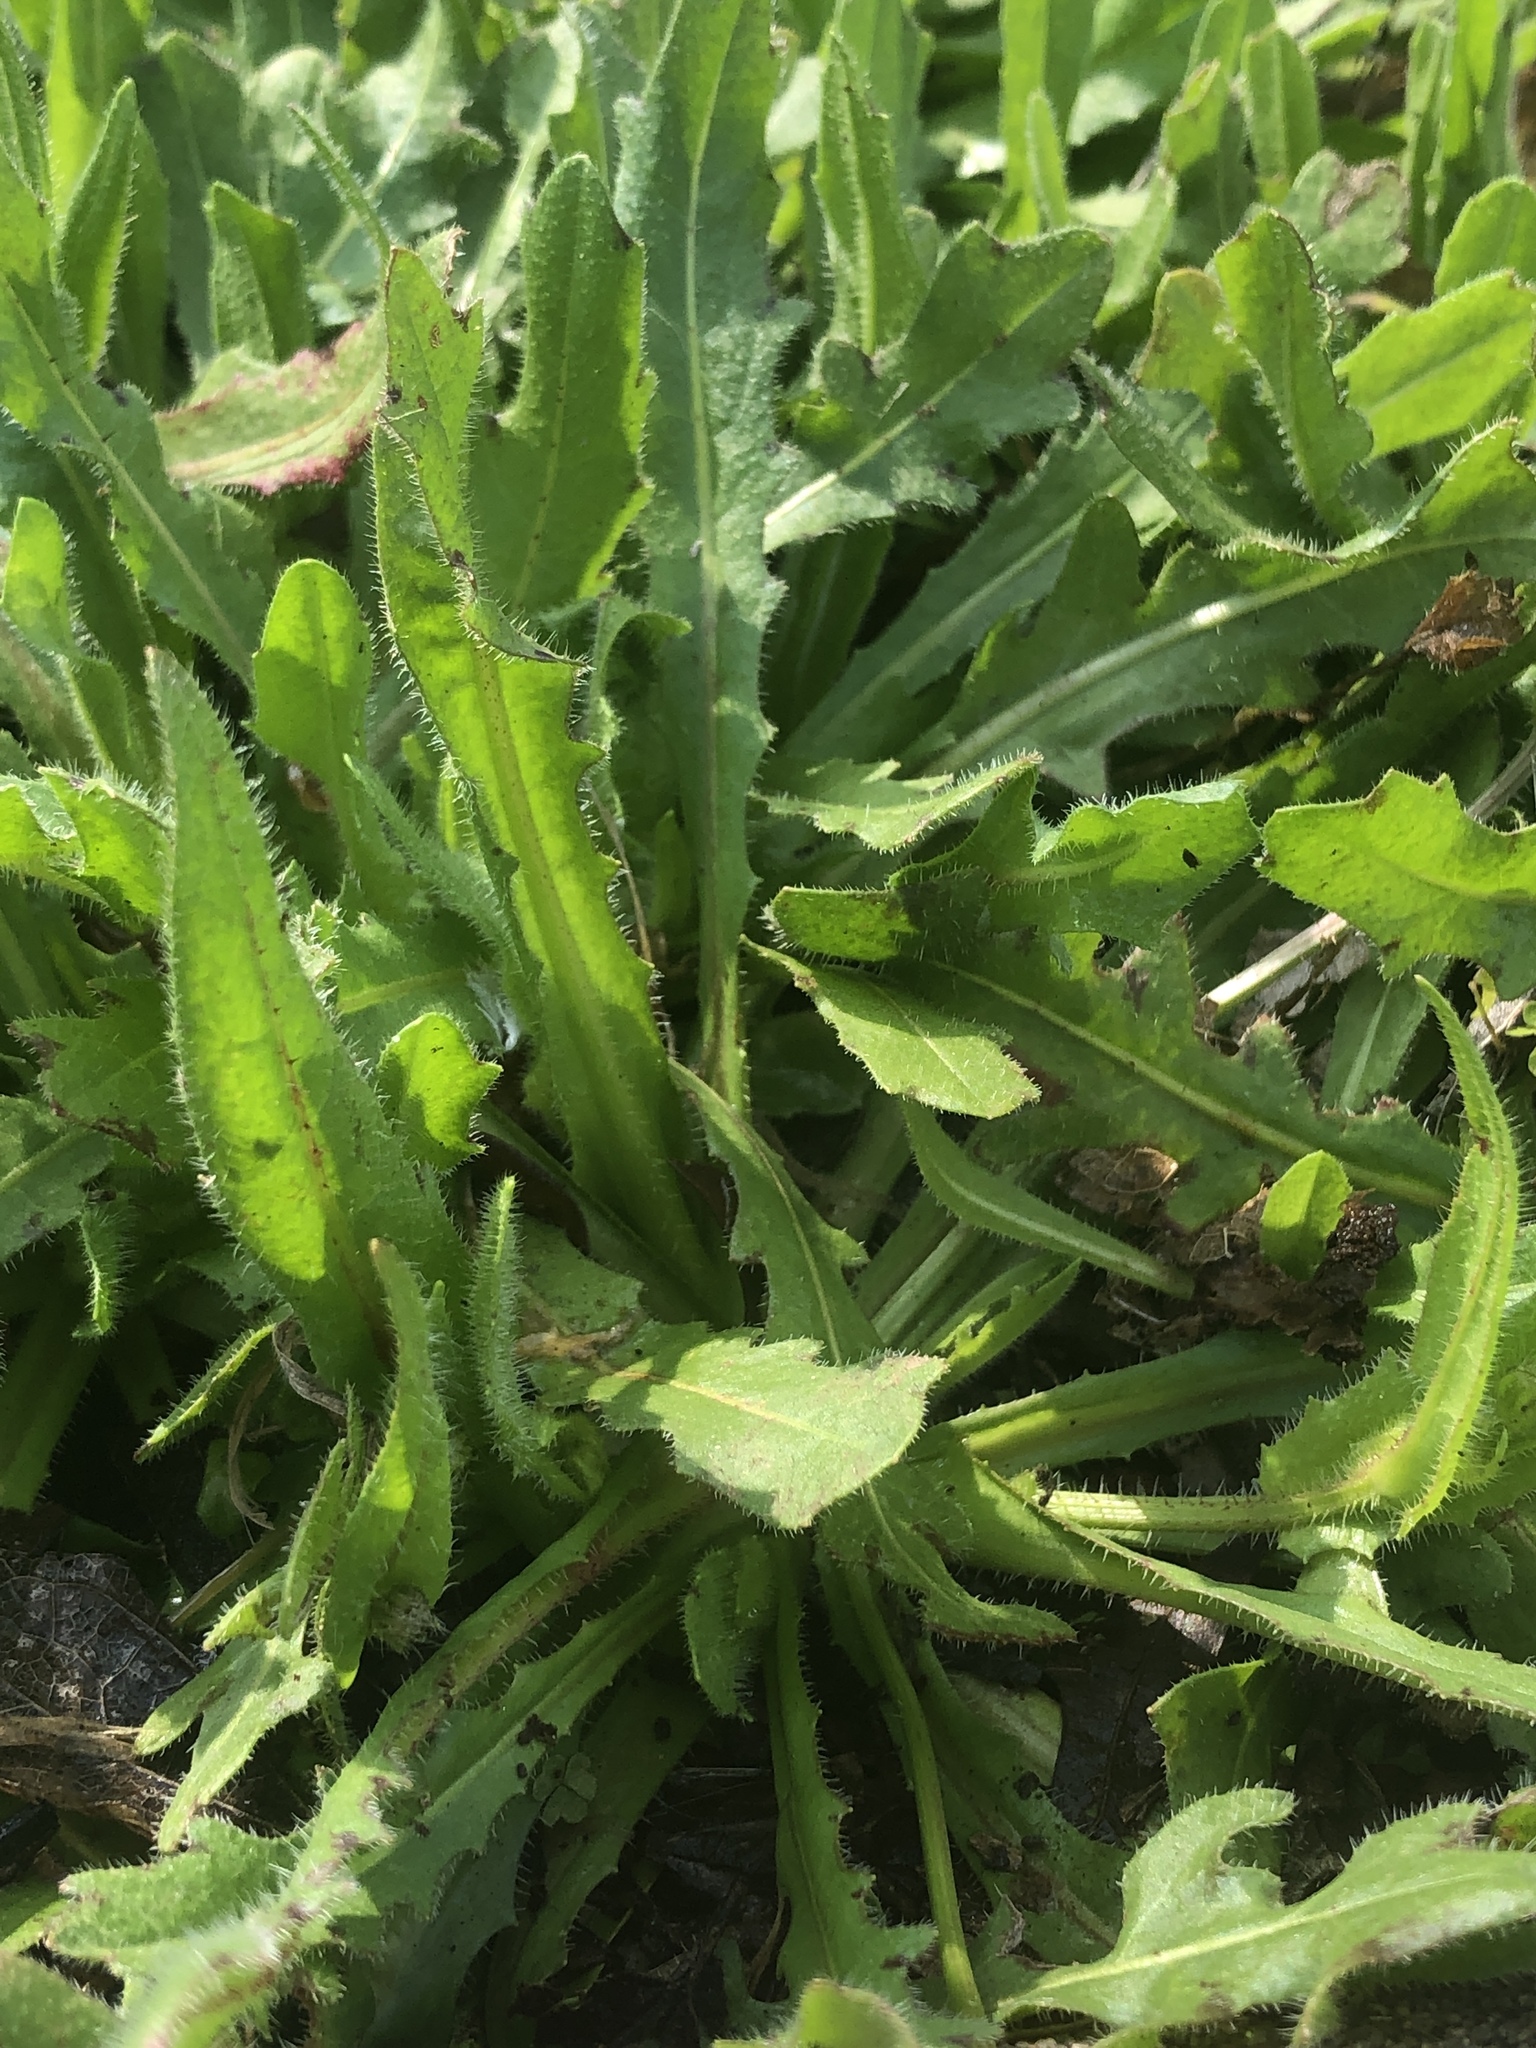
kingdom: Plantae
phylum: Tracheophyta
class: Magnoliopsida
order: Asterales
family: Asteraceae
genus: Hedypnois
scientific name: Hedypnois rhagadioloides
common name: Cretan weed
